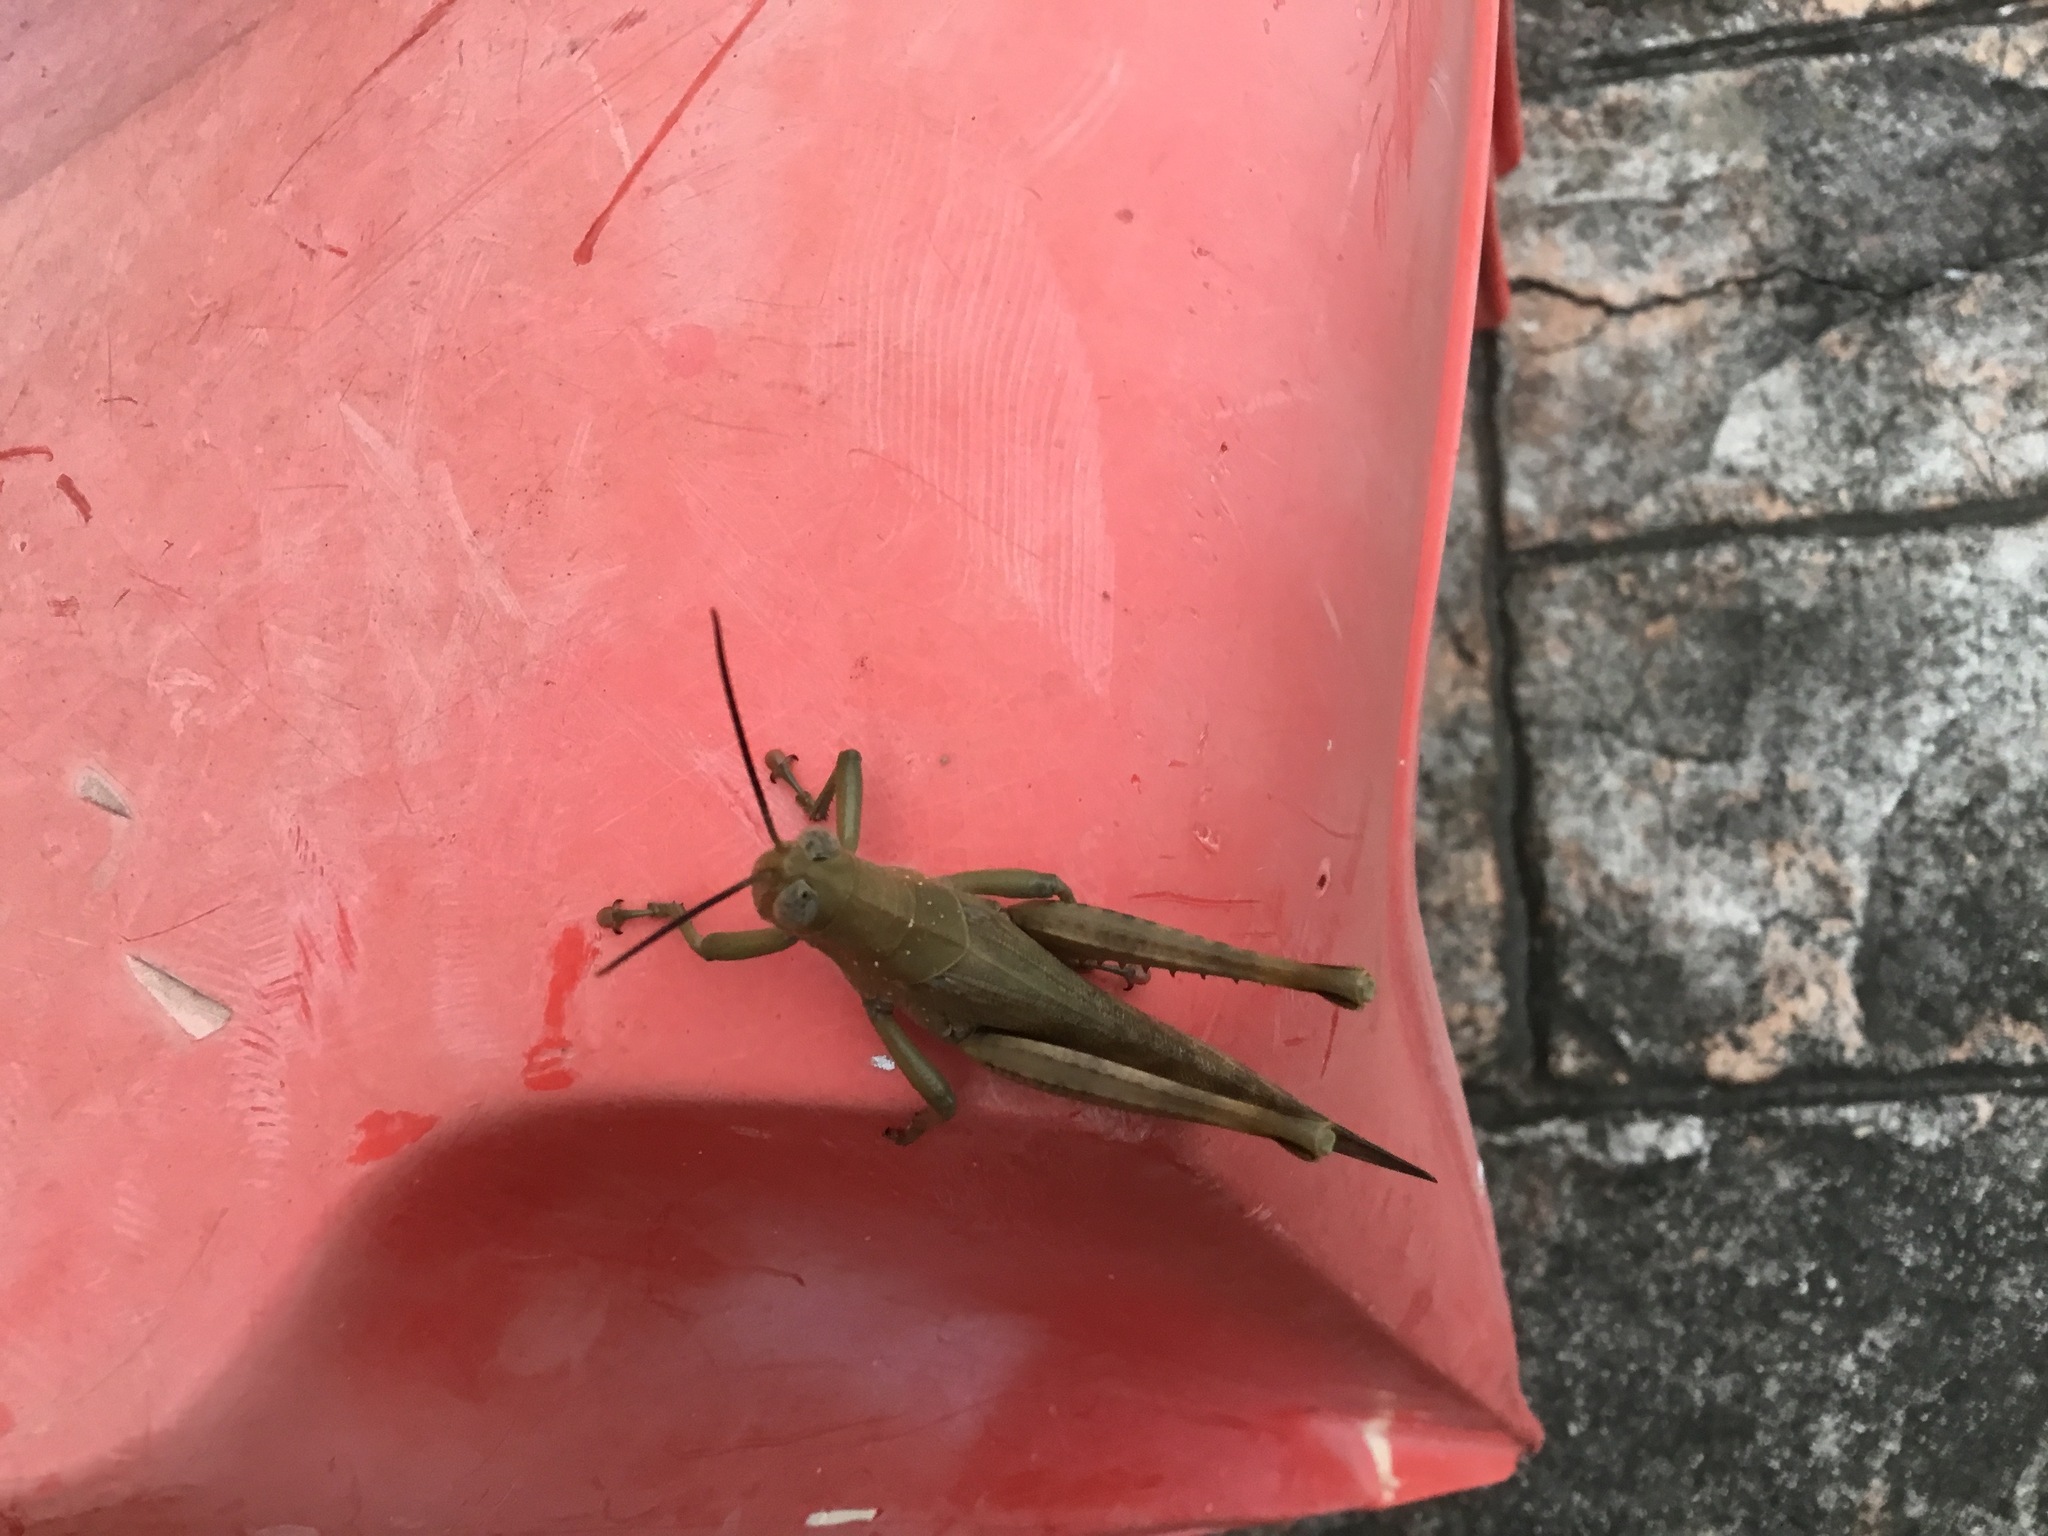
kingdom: Animalia
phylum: Arthropoda
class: Insecta
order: Orthoptera
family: Acrididae
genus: Valanga
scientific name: Valanga irregularis
